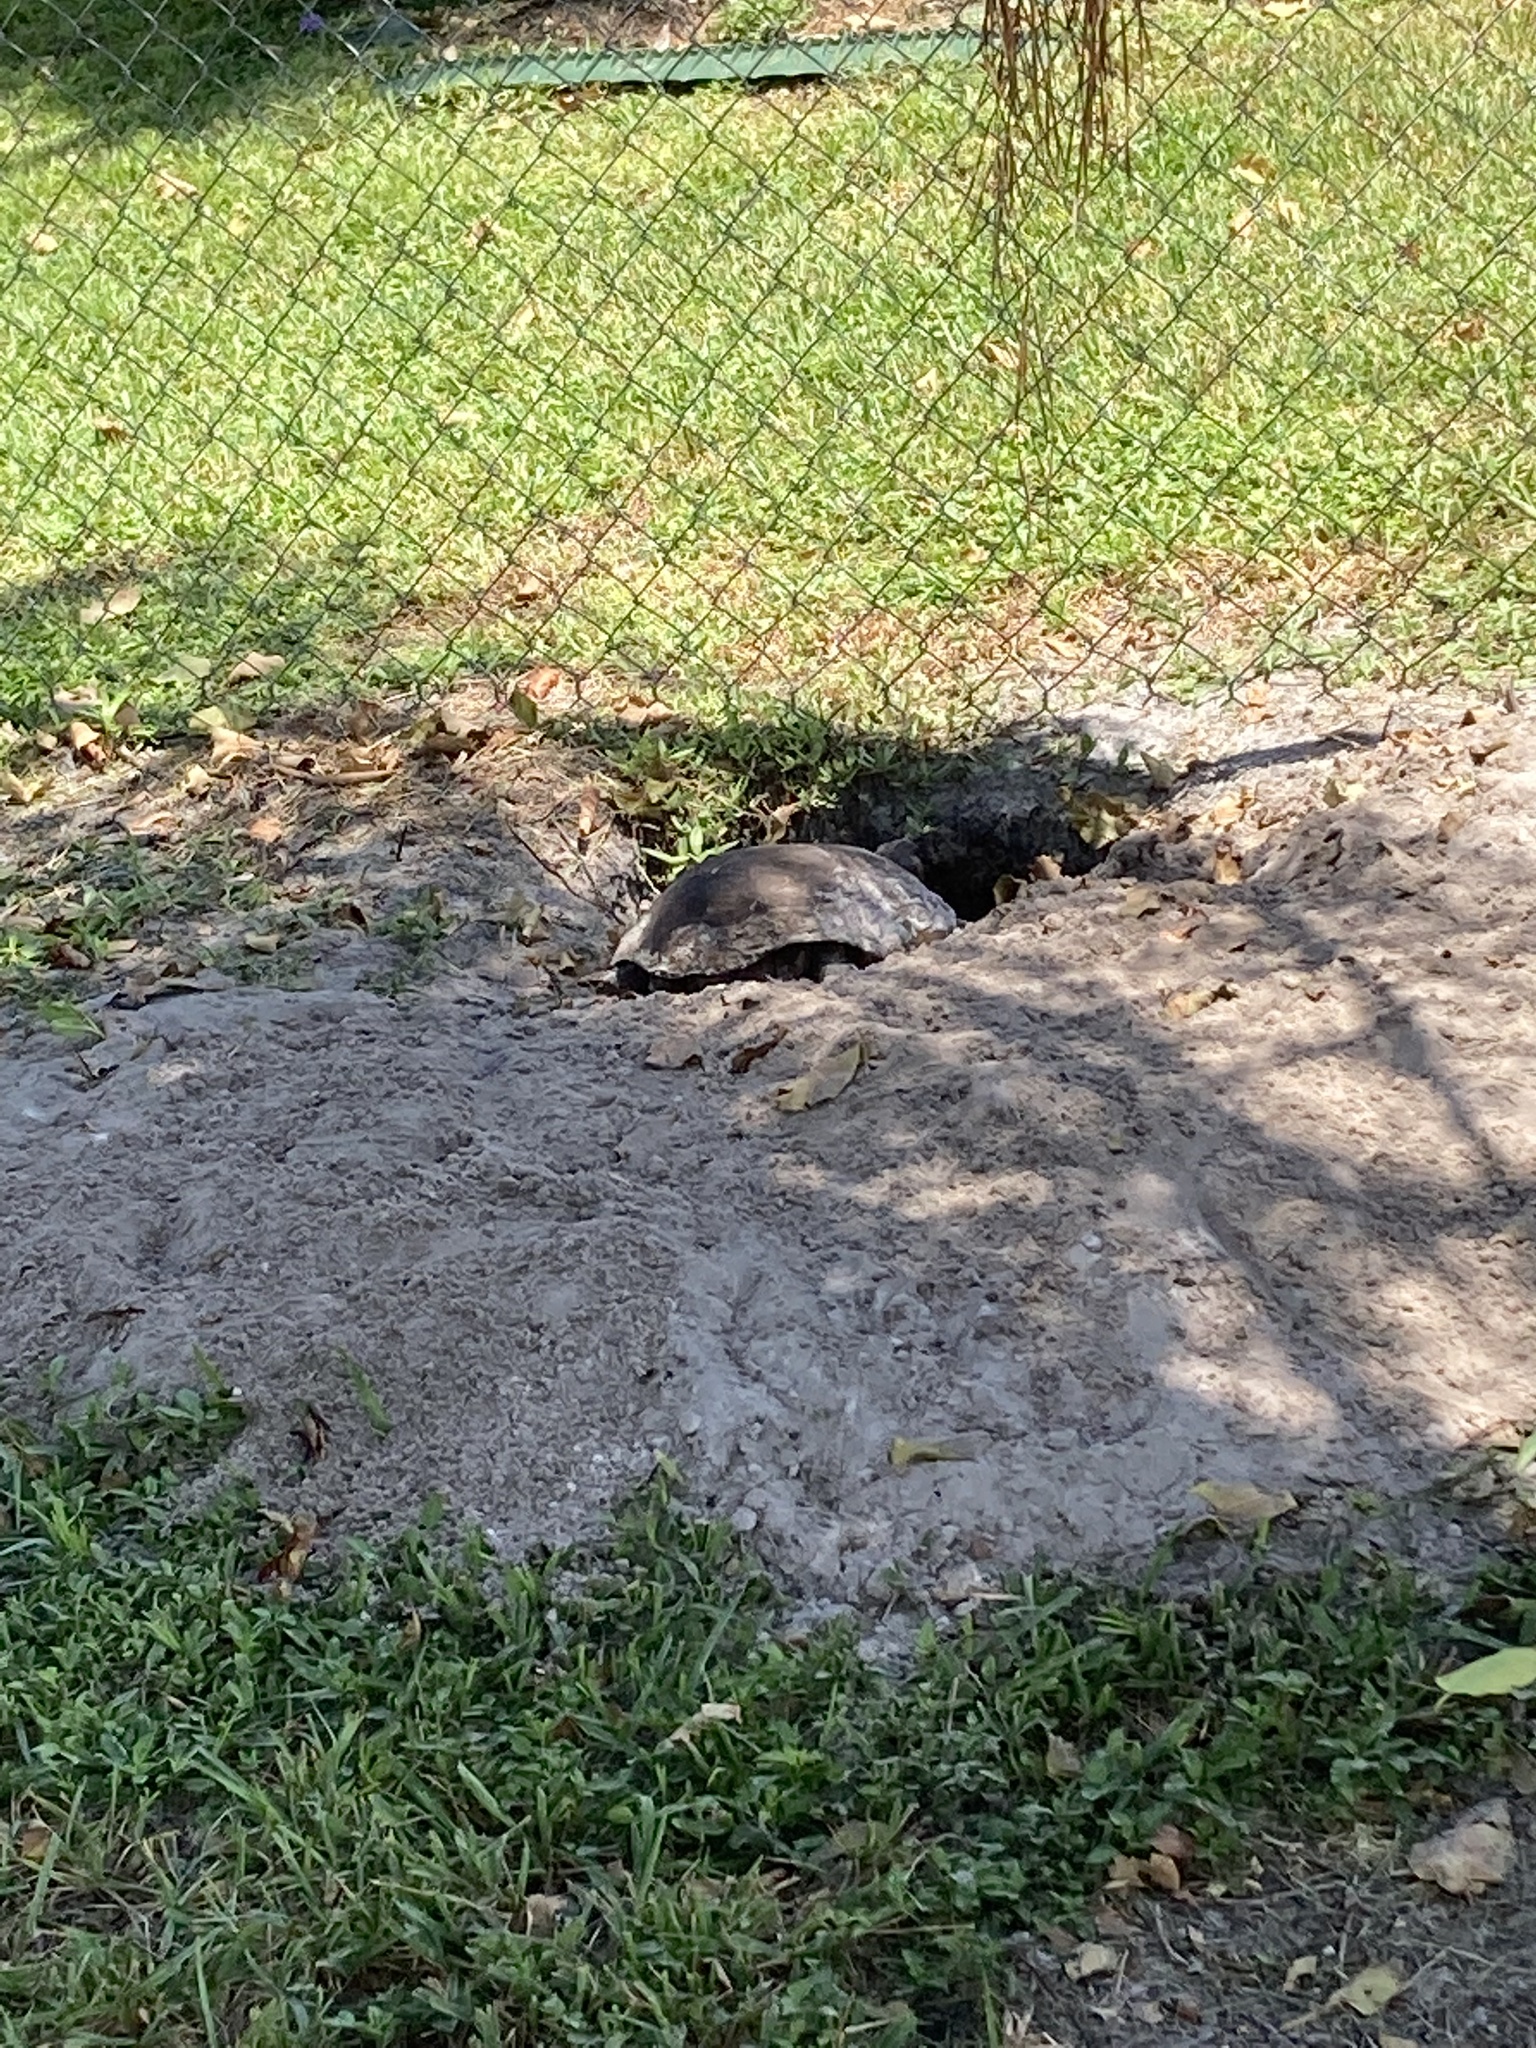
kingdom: Animalia
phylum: Chordata
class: Testudines
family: Testudinidae
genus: Gopherus
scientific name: Gopherus polyphemus
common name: Florida gopher tortoise
